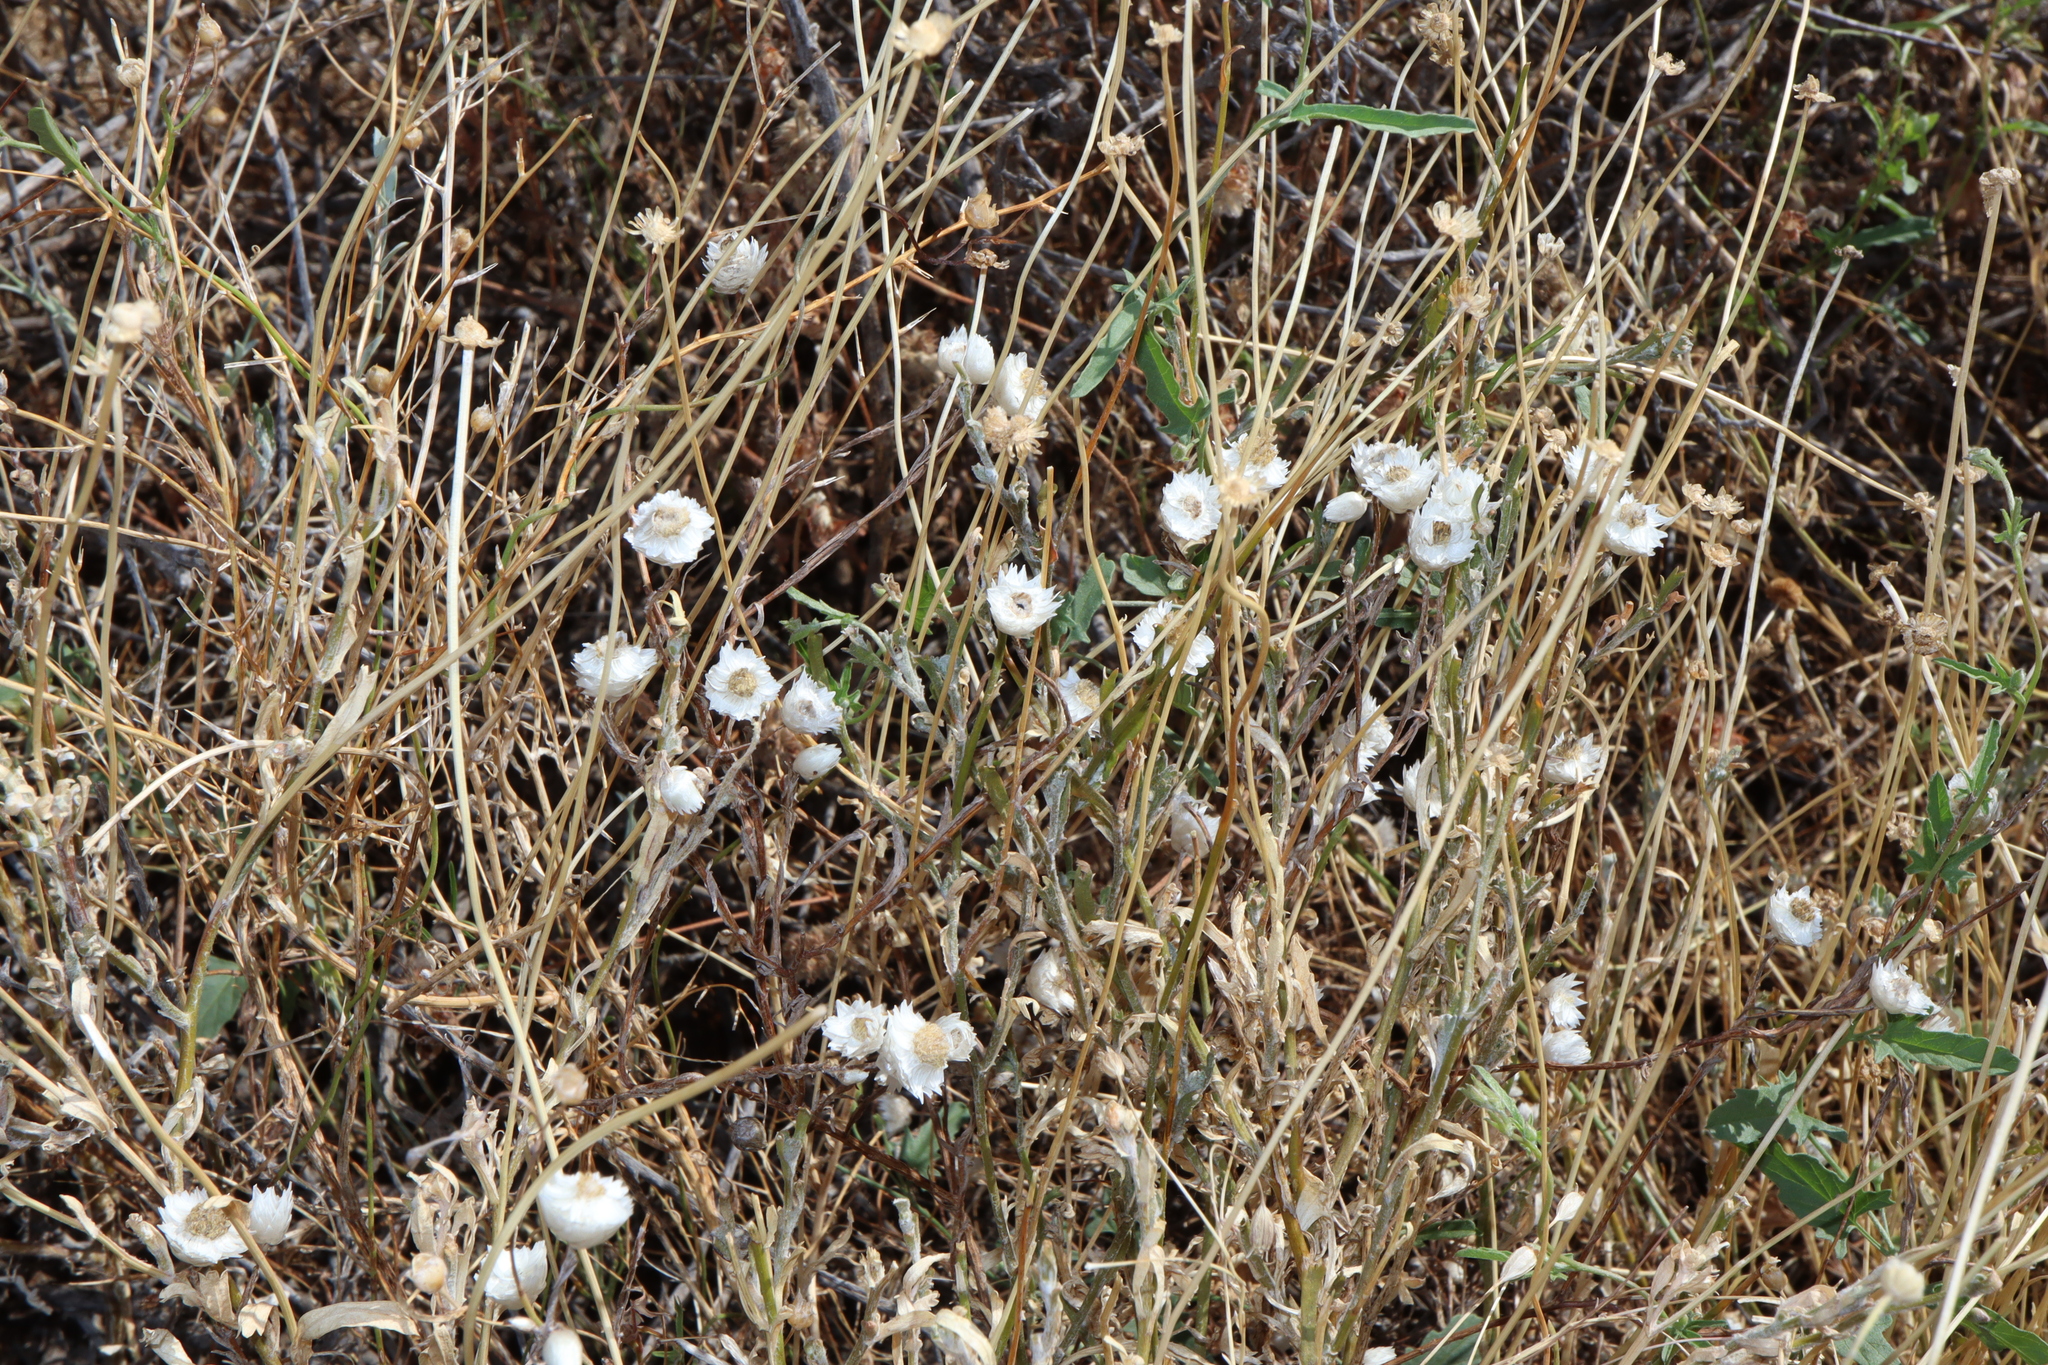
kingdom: Plantae
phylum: Tracheophyta
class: Magnoliopsida
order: Asterales
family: Asteraceae
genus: Rhodanthe
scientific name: Rhodanthe floribunda
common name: Flowery sunray
